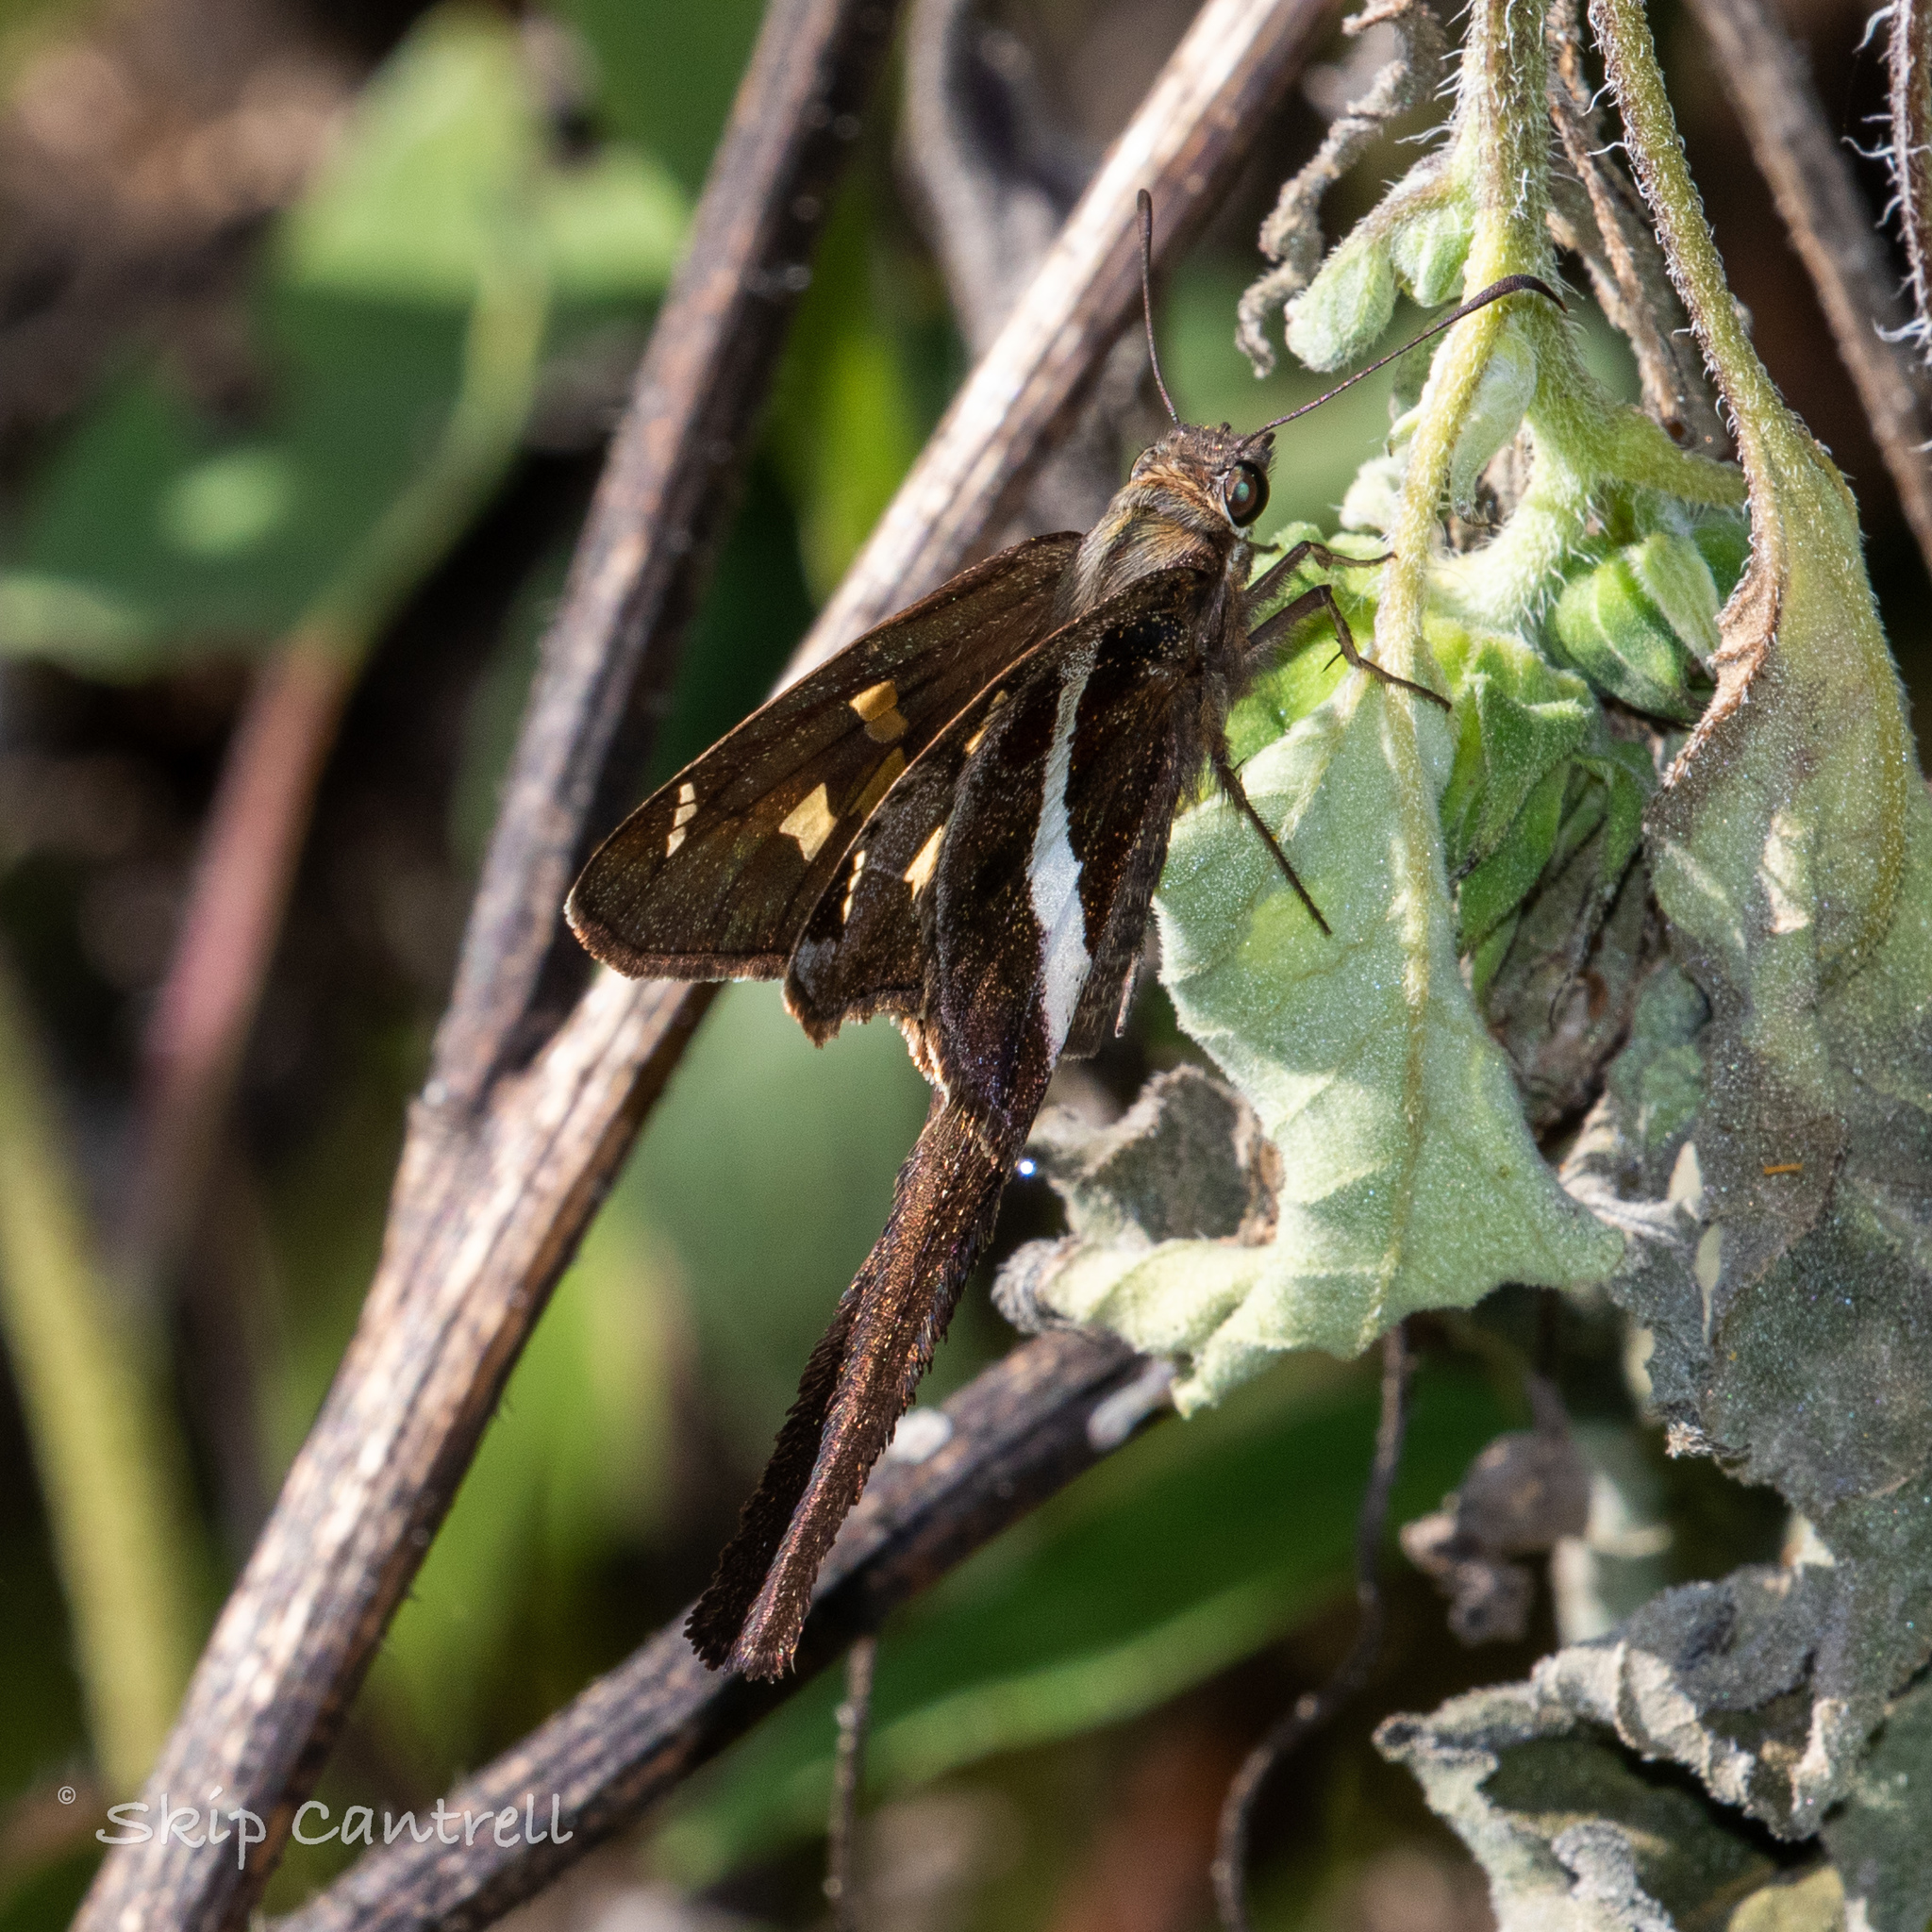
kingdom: Animalia
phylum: Arthropoda
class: Insecta
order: Lepidoptera
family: Hesperiidae
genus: Chioides
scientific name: Chioides catillus
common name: Silverbanded skipper
